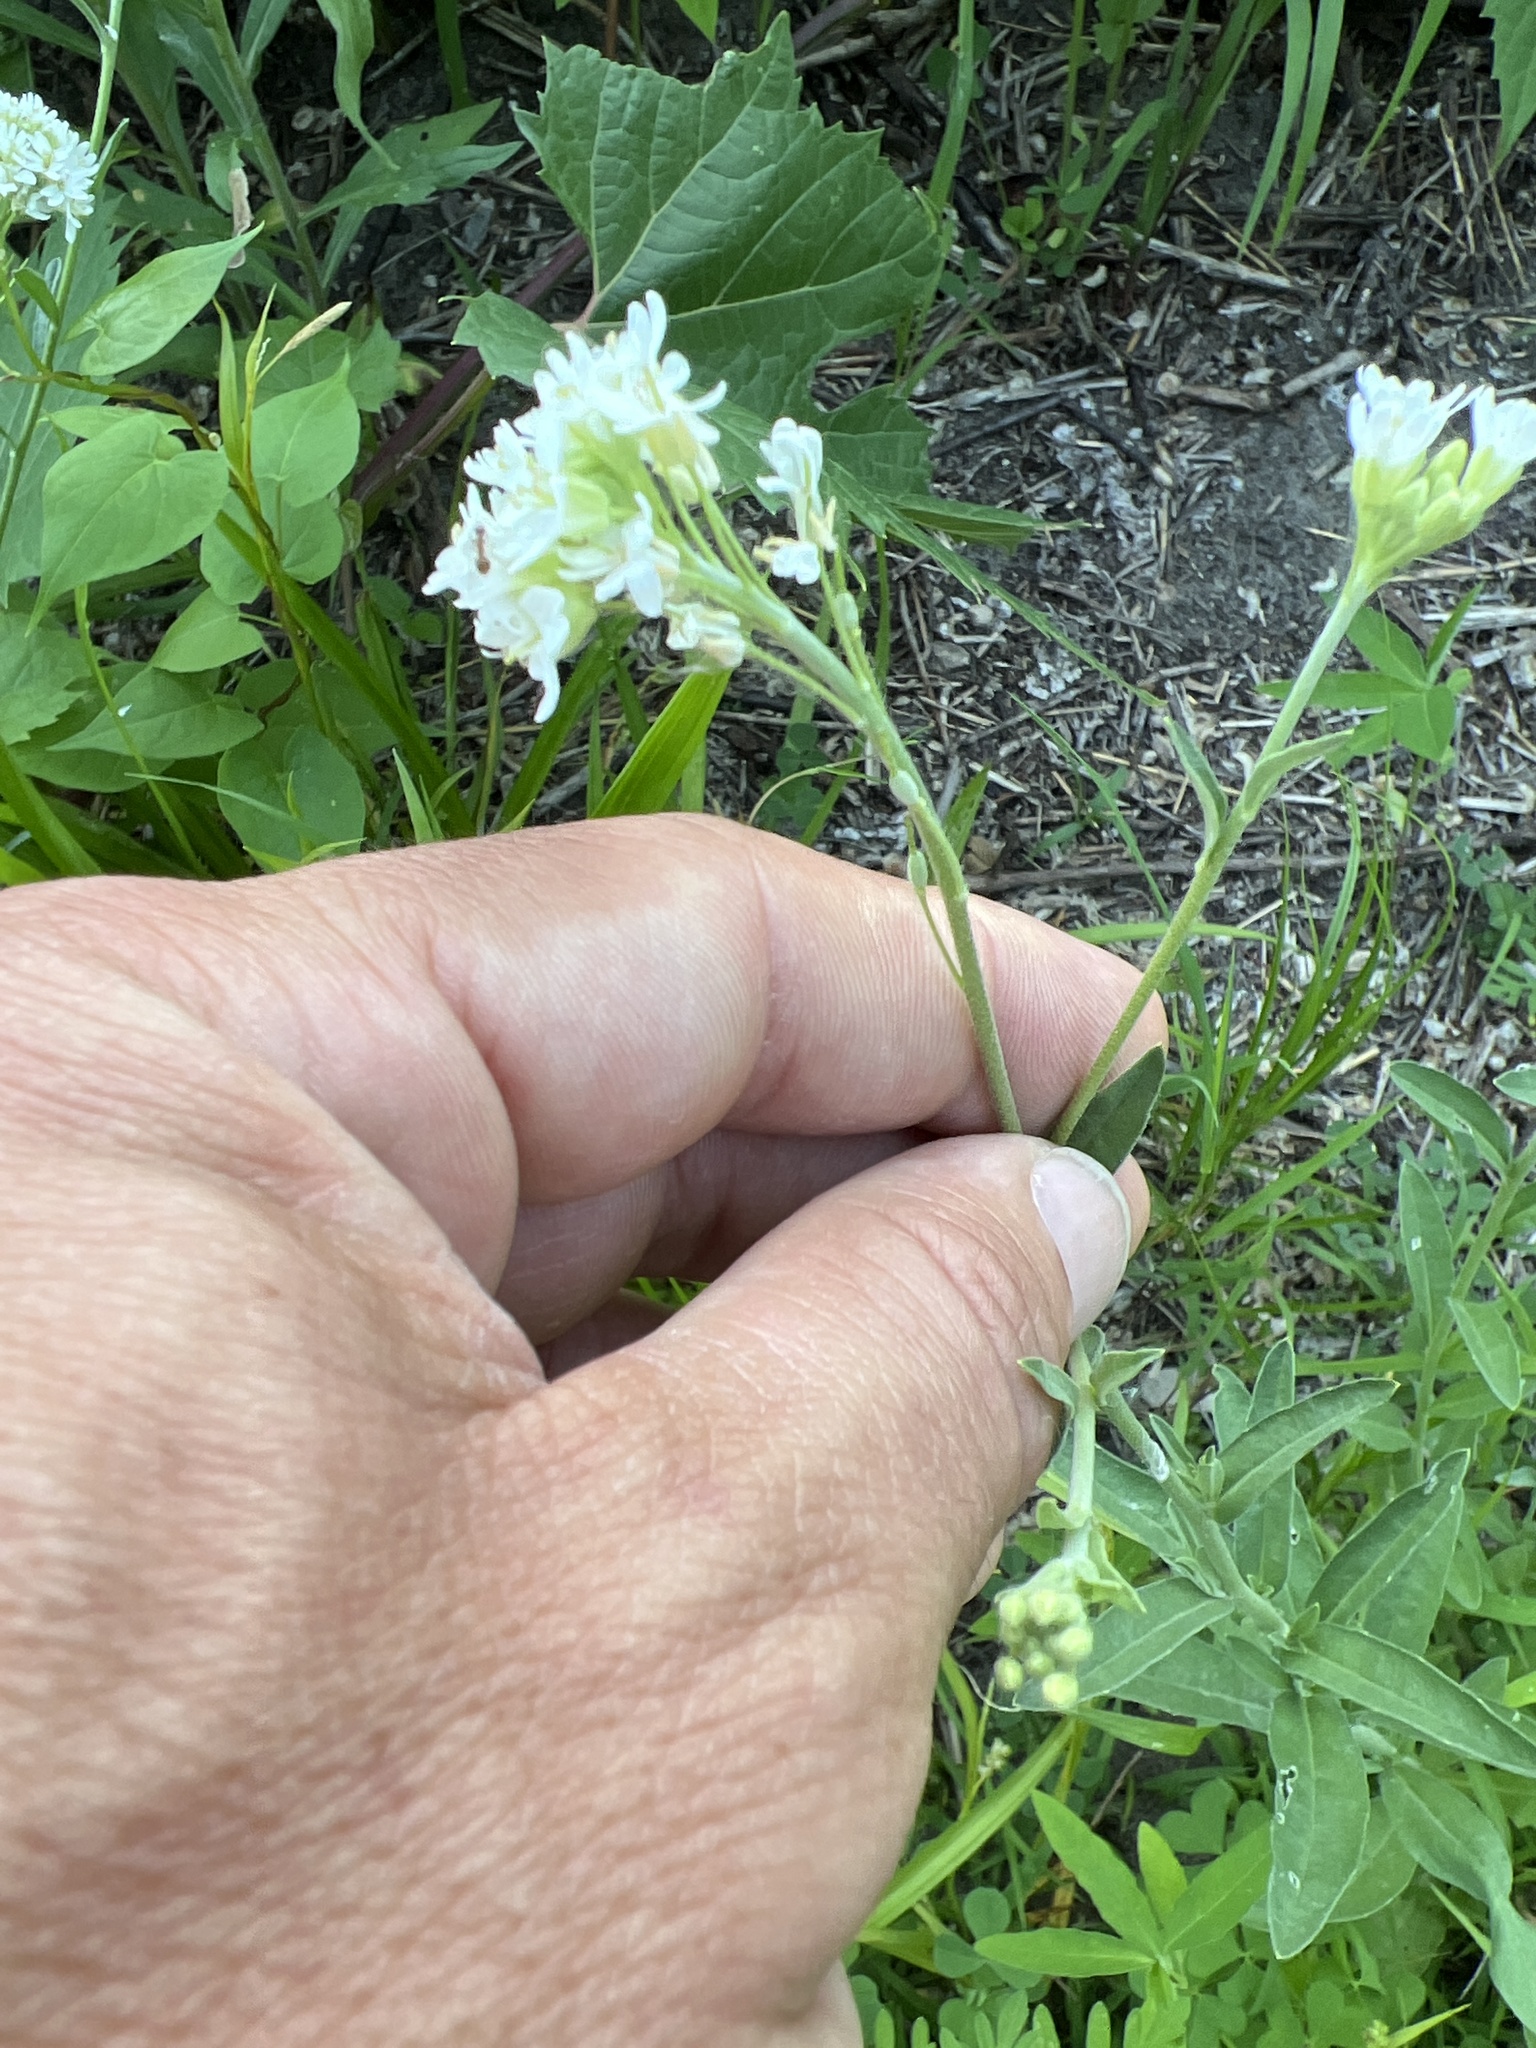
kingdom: Plantae
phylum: Tracheophyta
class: Magnoliopsida
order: Brassicales
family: Brassicaceae
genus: Berteroa
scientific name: Berteroa incana
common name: Hoary alison
